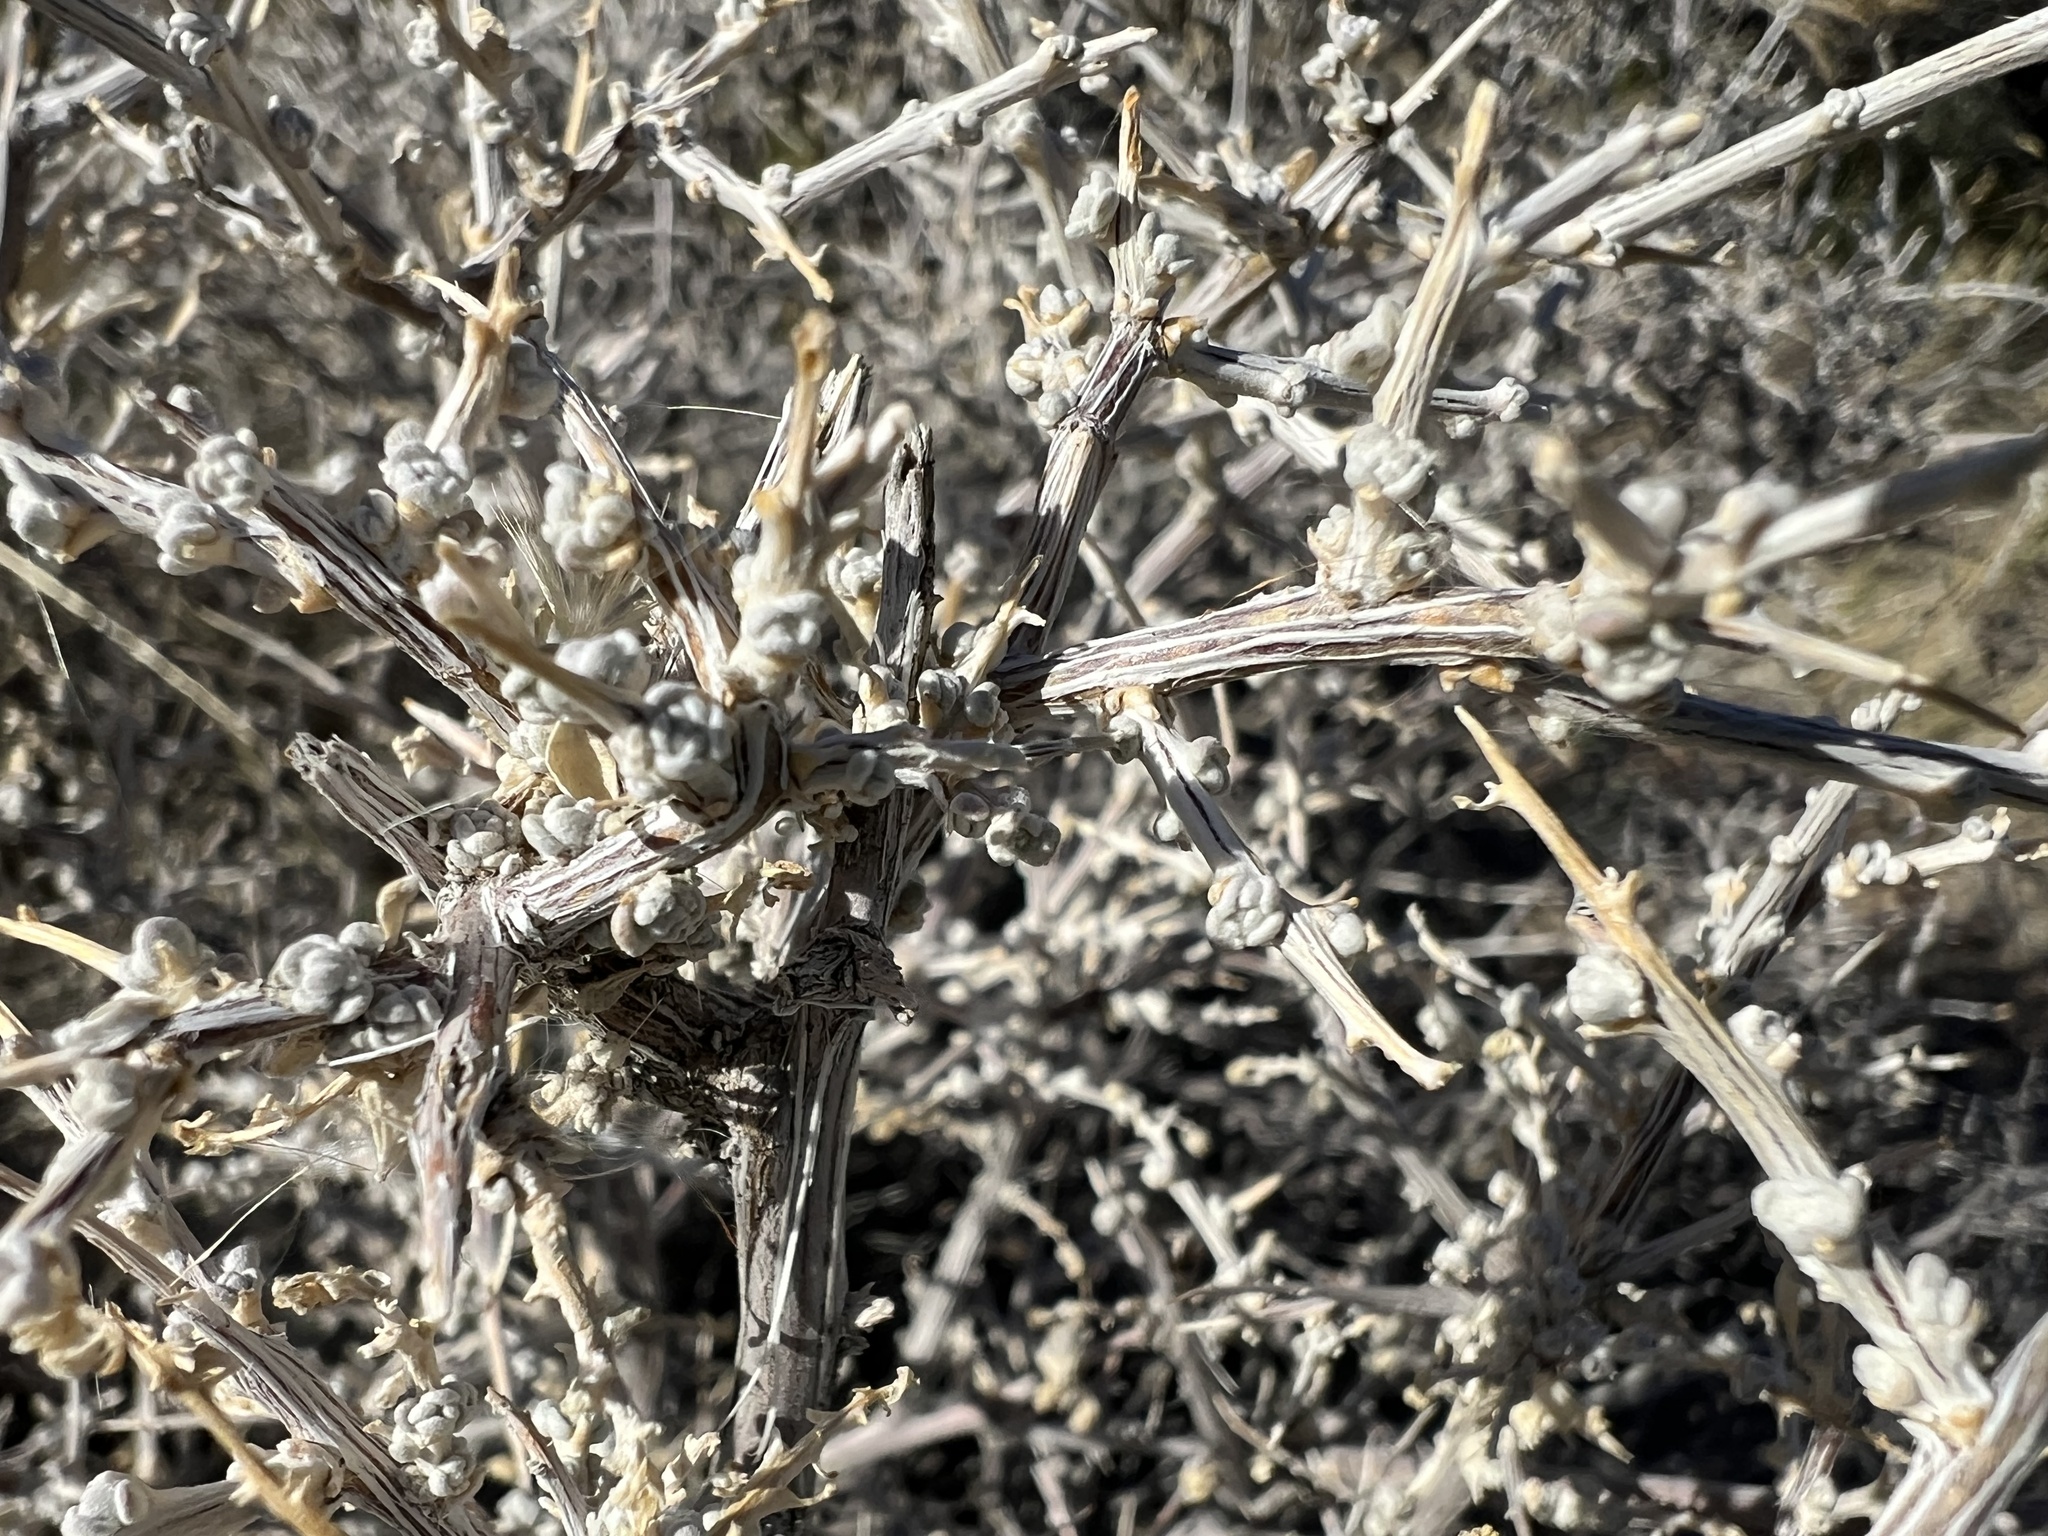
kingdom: Plantae
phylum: Tracheophyta
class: Magnoliopsida
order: Caryophyllales
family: Amaranthaceae
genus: Grayia
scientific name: Grayia spinosa
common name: Spiny hopsage
